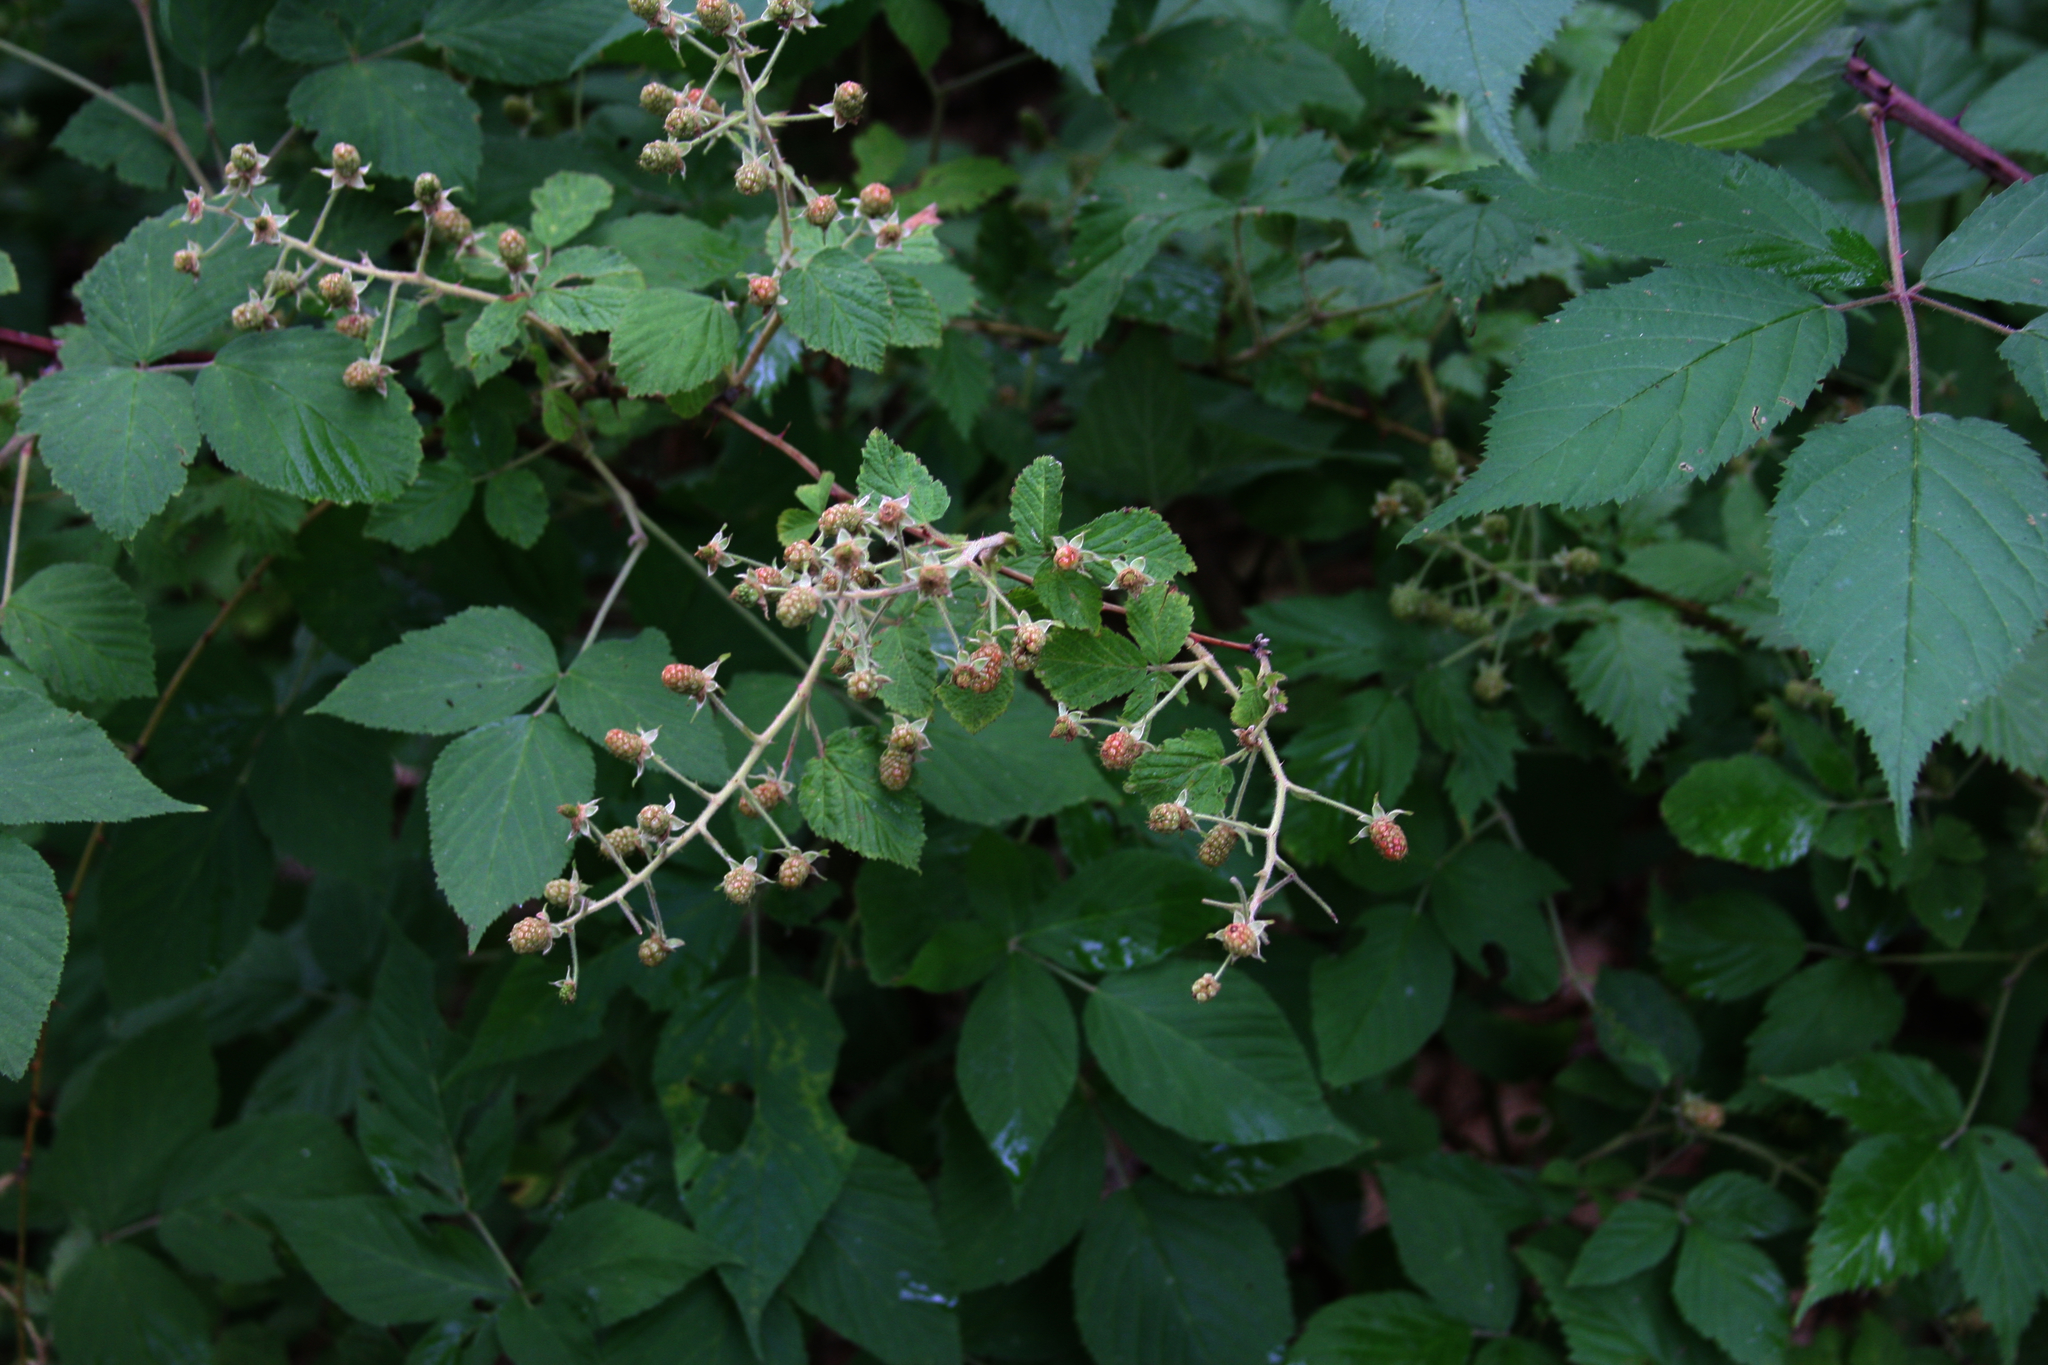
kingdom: Plantae
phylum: Tracheophyta
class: Magnoliopsida
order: Rosales
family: Rosaceae
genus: Rubus
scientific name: Rubus allegheniensis
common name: Allegheny blackberry
